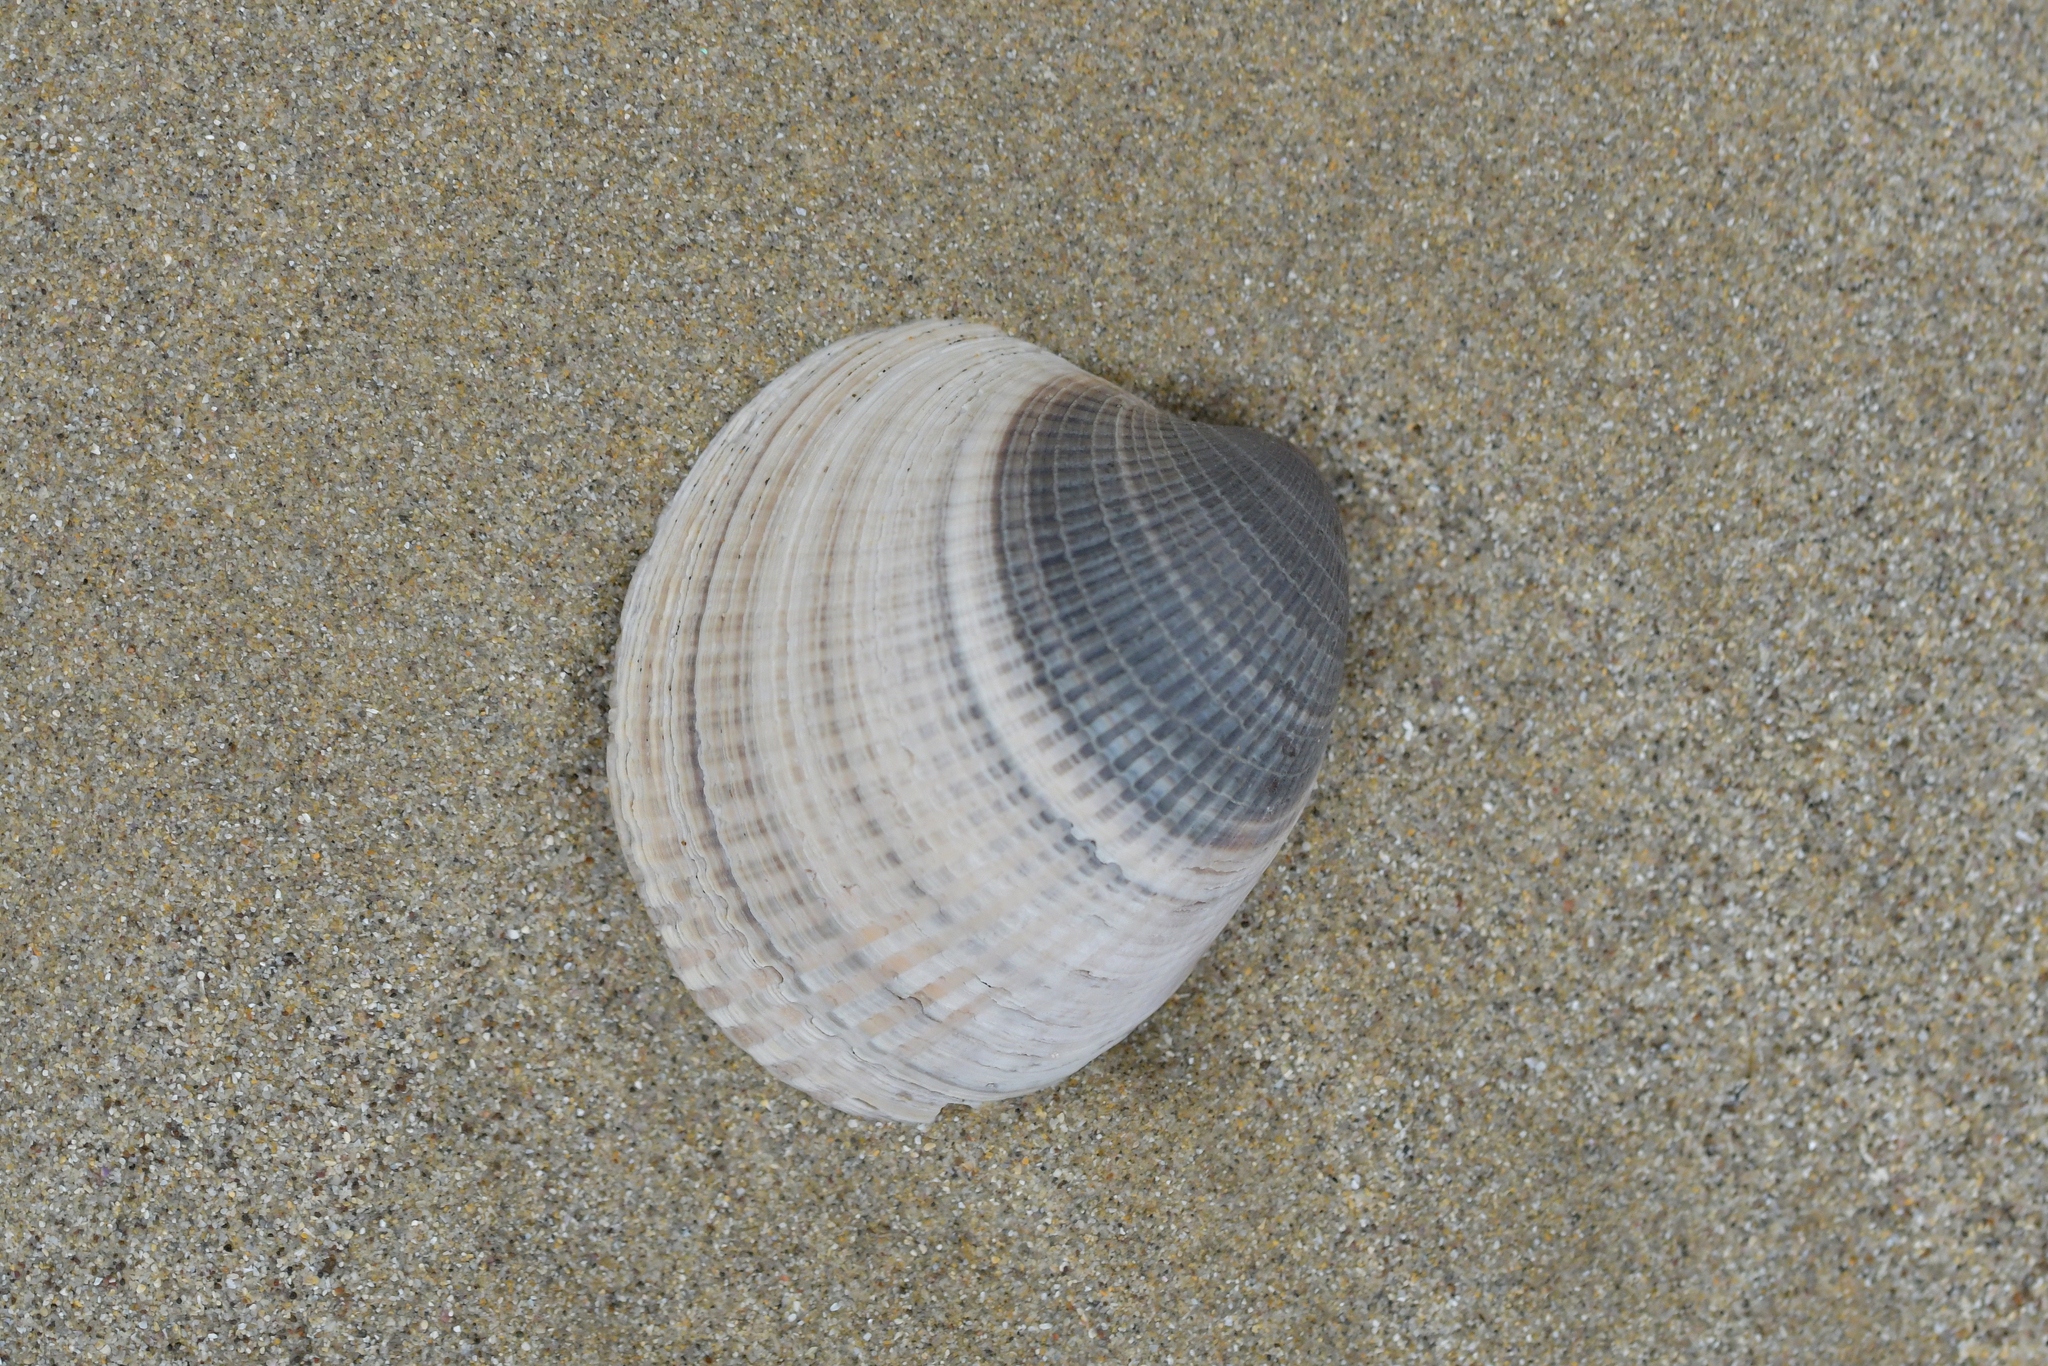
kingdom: Animalia
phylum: Mollusca
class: Bivalvia
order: Venerida
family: Veneridae
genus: Austrovenus
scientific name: Austrovenus stutchburyi
